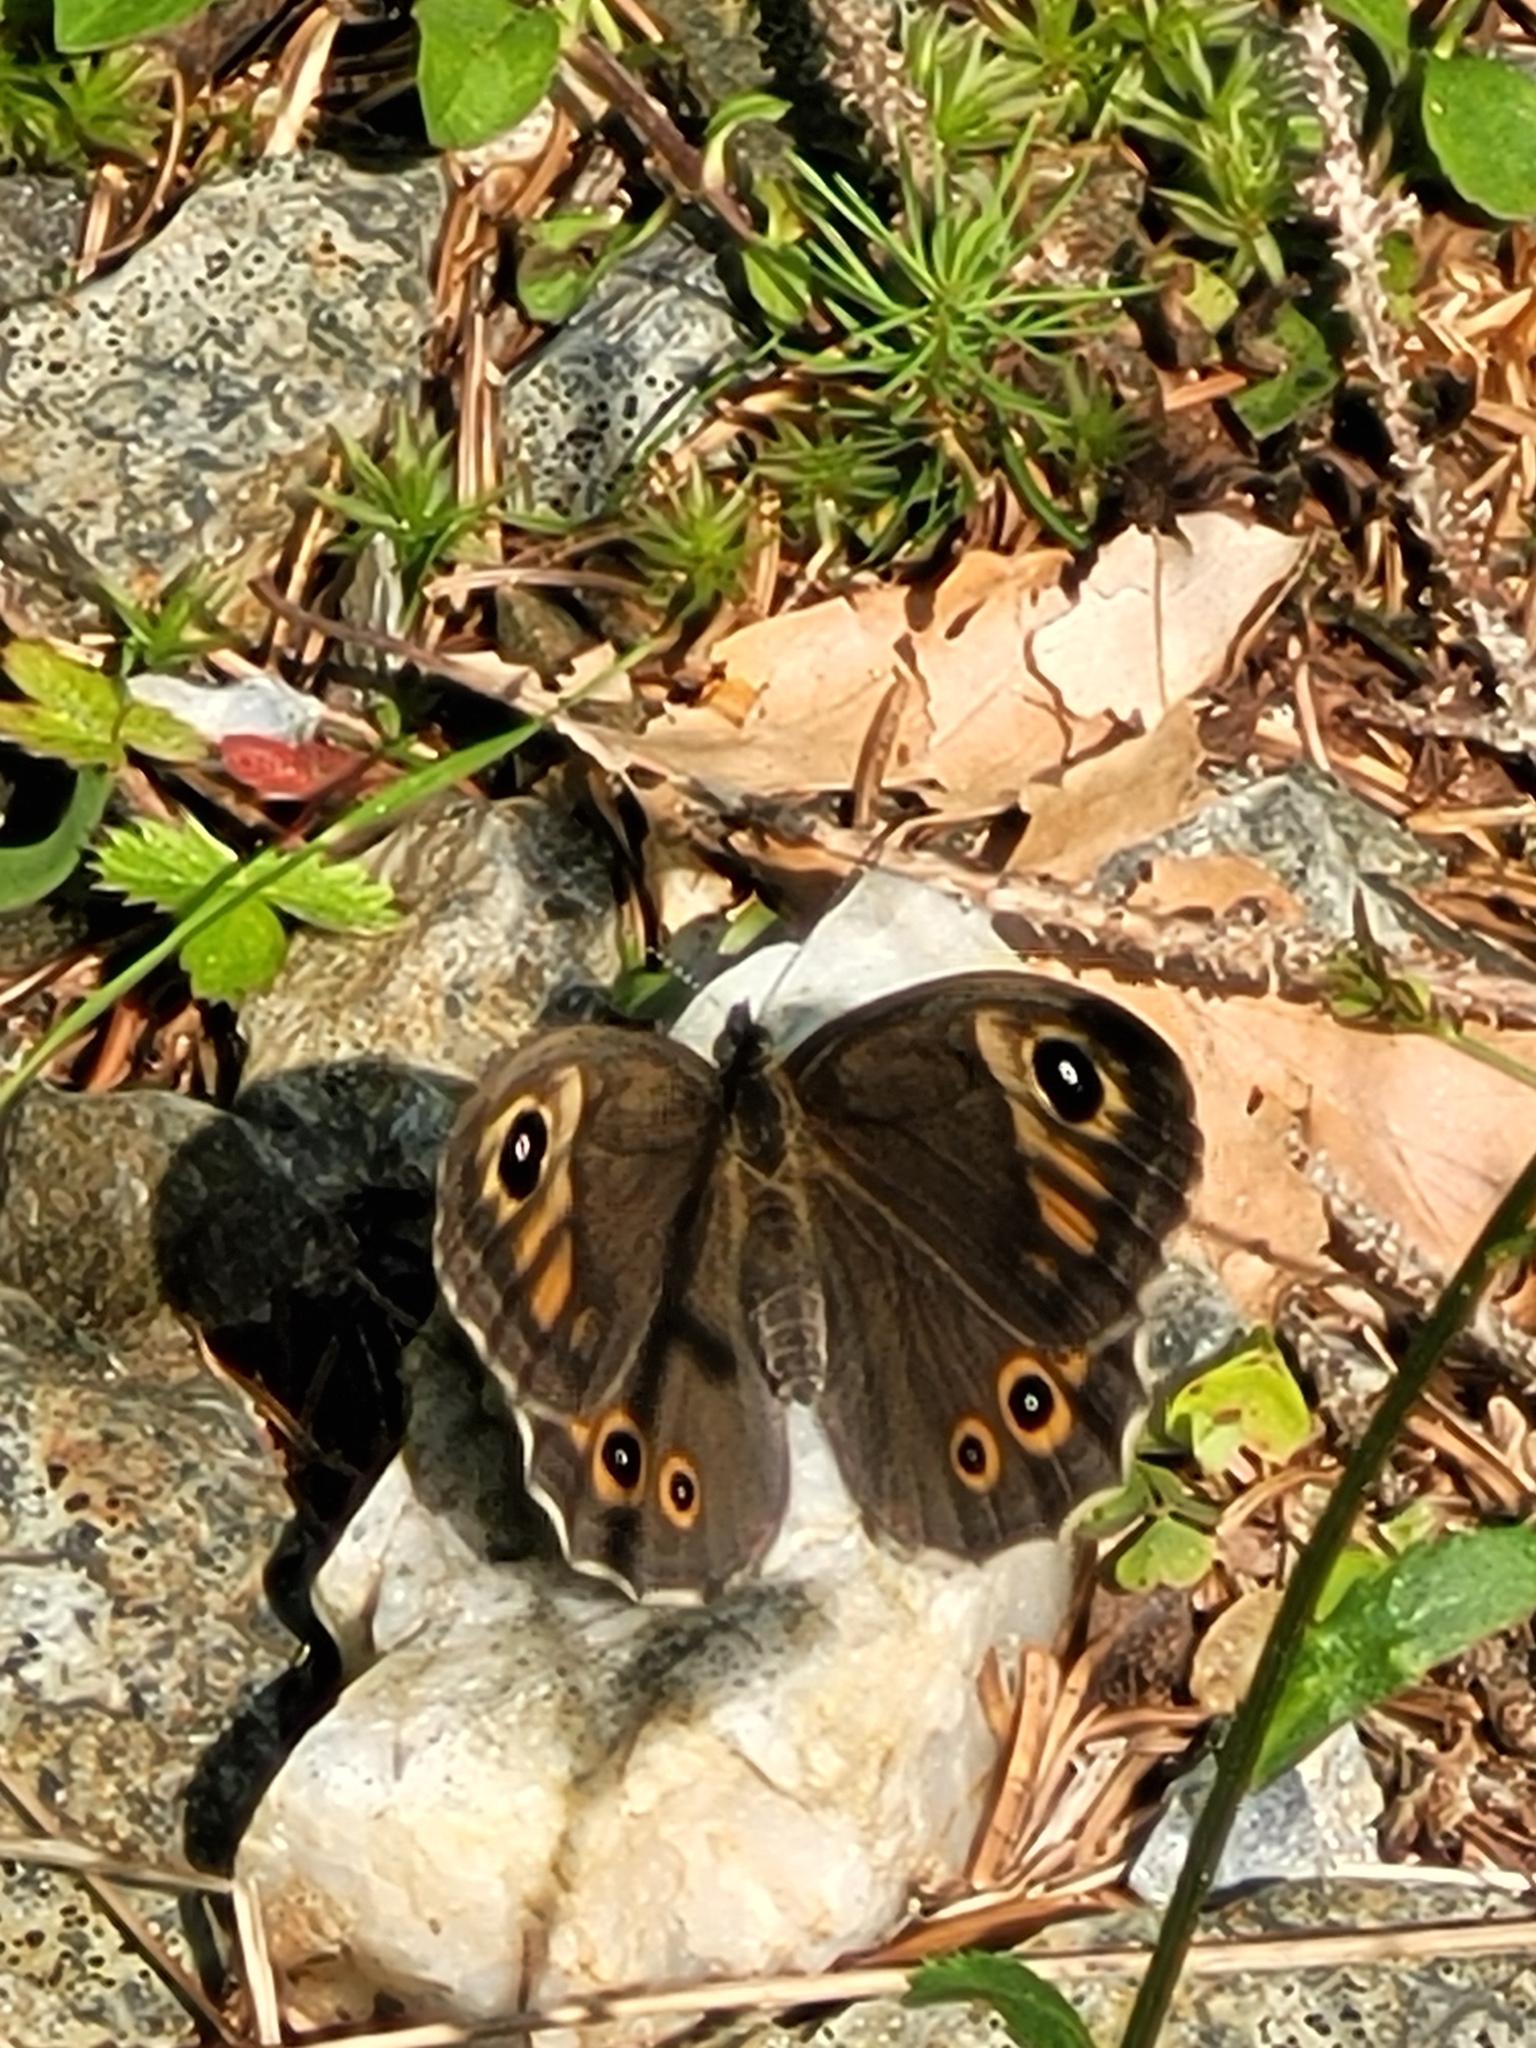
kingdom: Animalia
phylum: Arthropoda
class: Insecta
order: Lepidoptera
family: Nymphalidae
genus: Pararge
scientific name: Pararge Lasiommata maera
